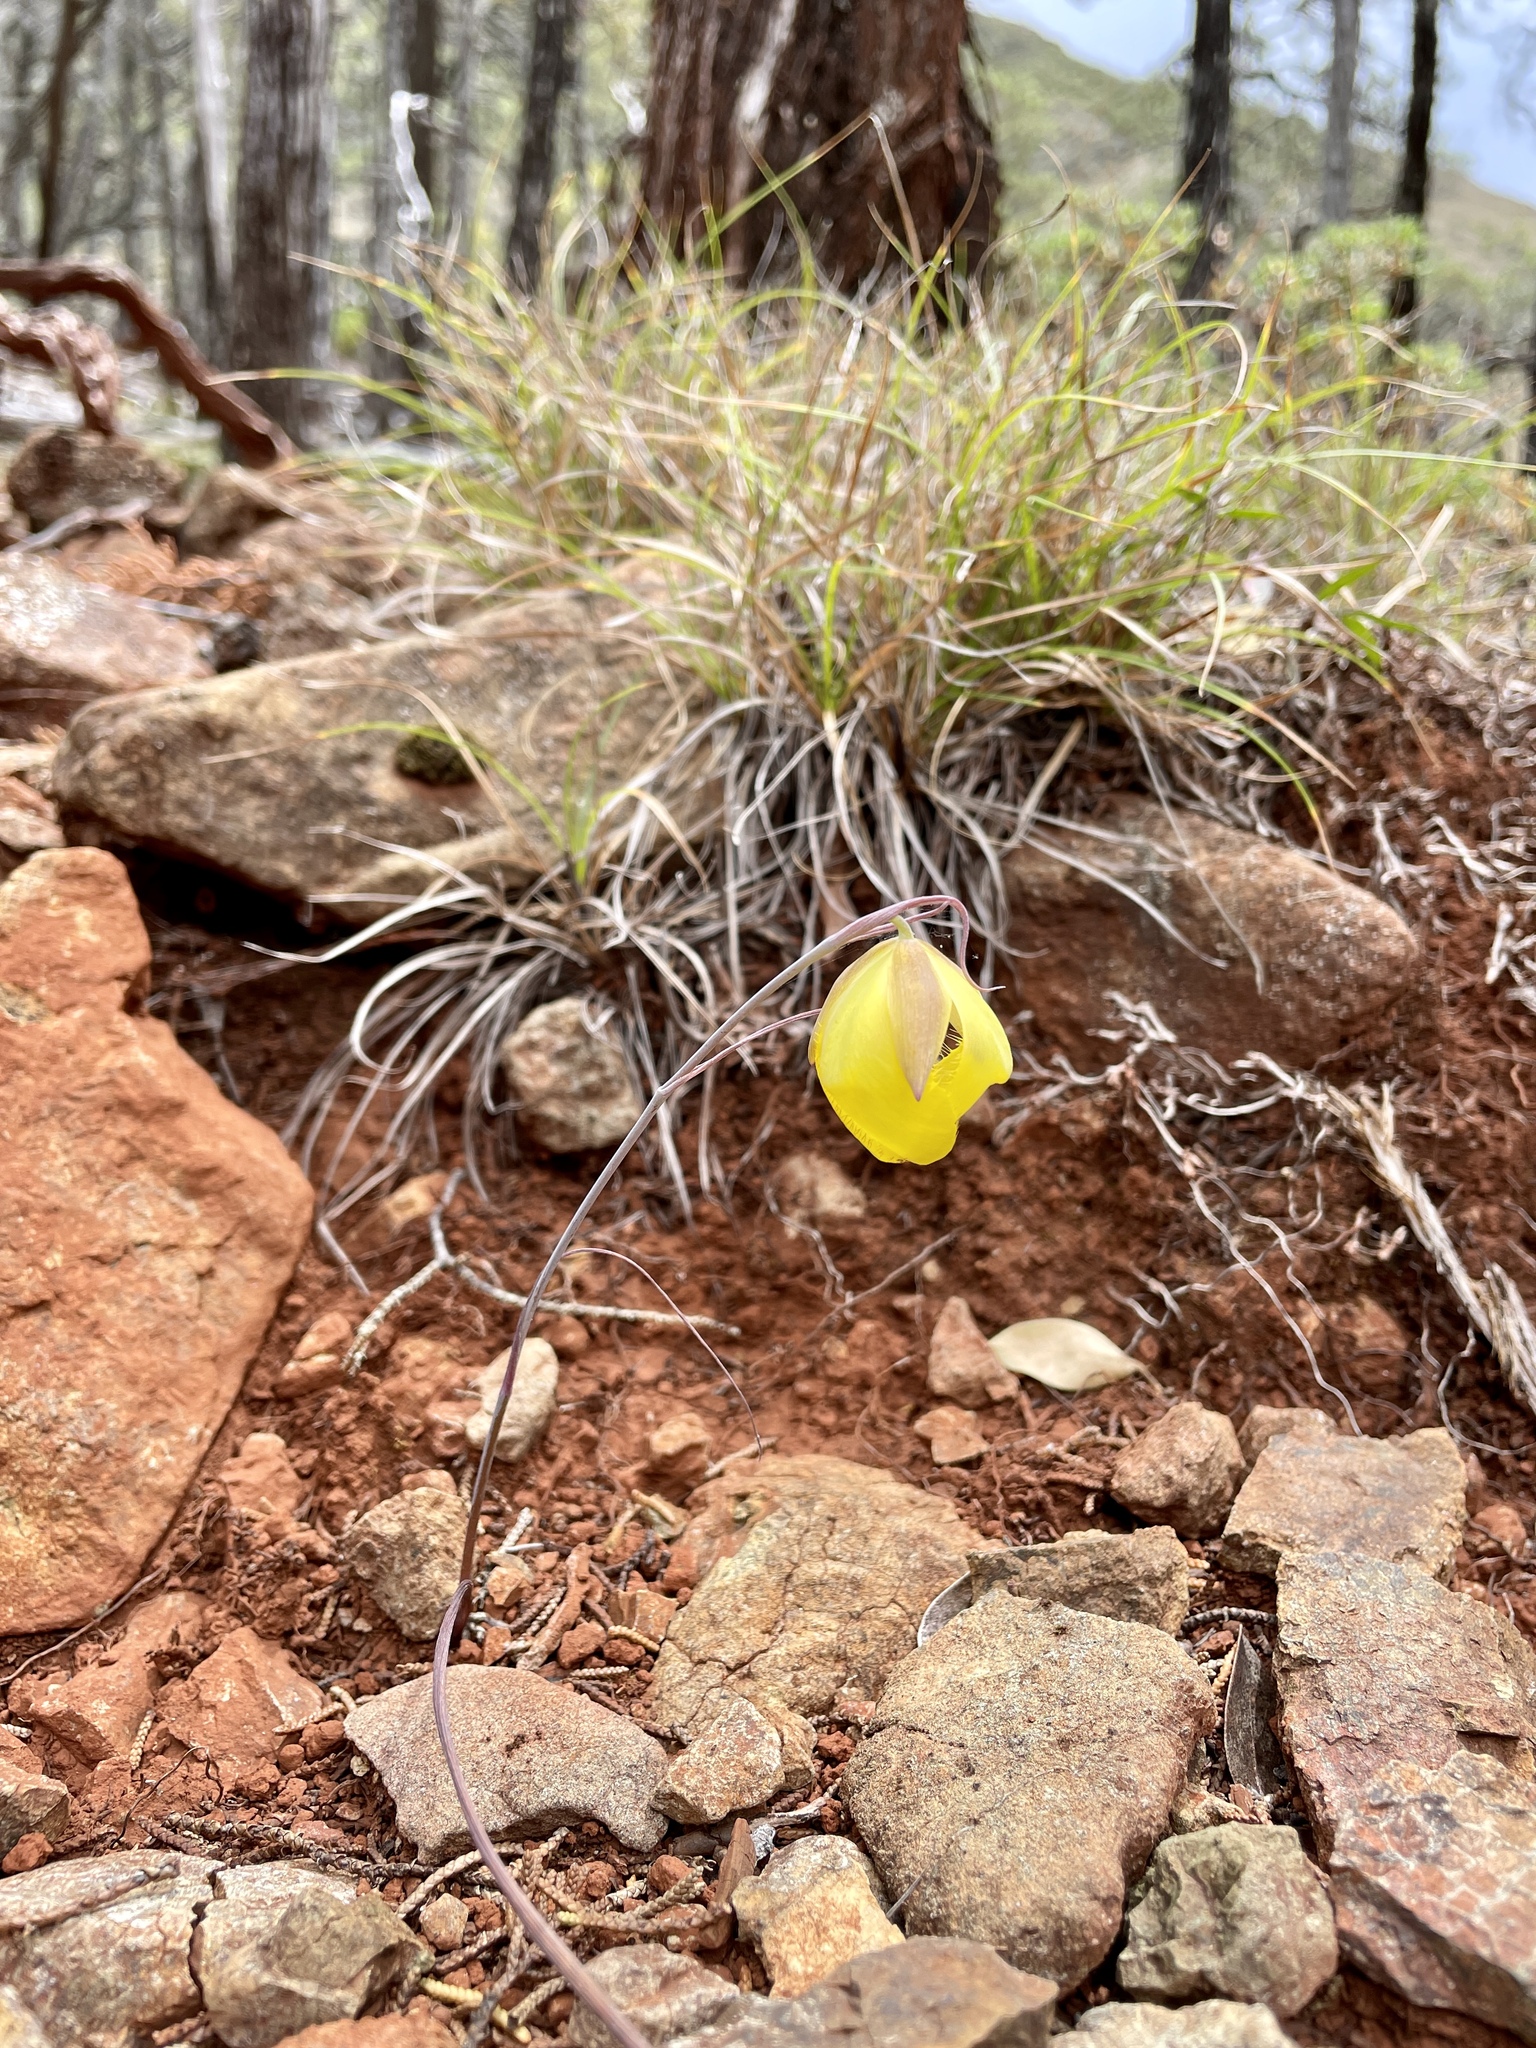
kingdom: Plantae
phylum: Tracheophyta
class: Liliopsida
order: Liliales
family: Liliaceae
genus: Calochortus
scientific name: Calochortus raichei
